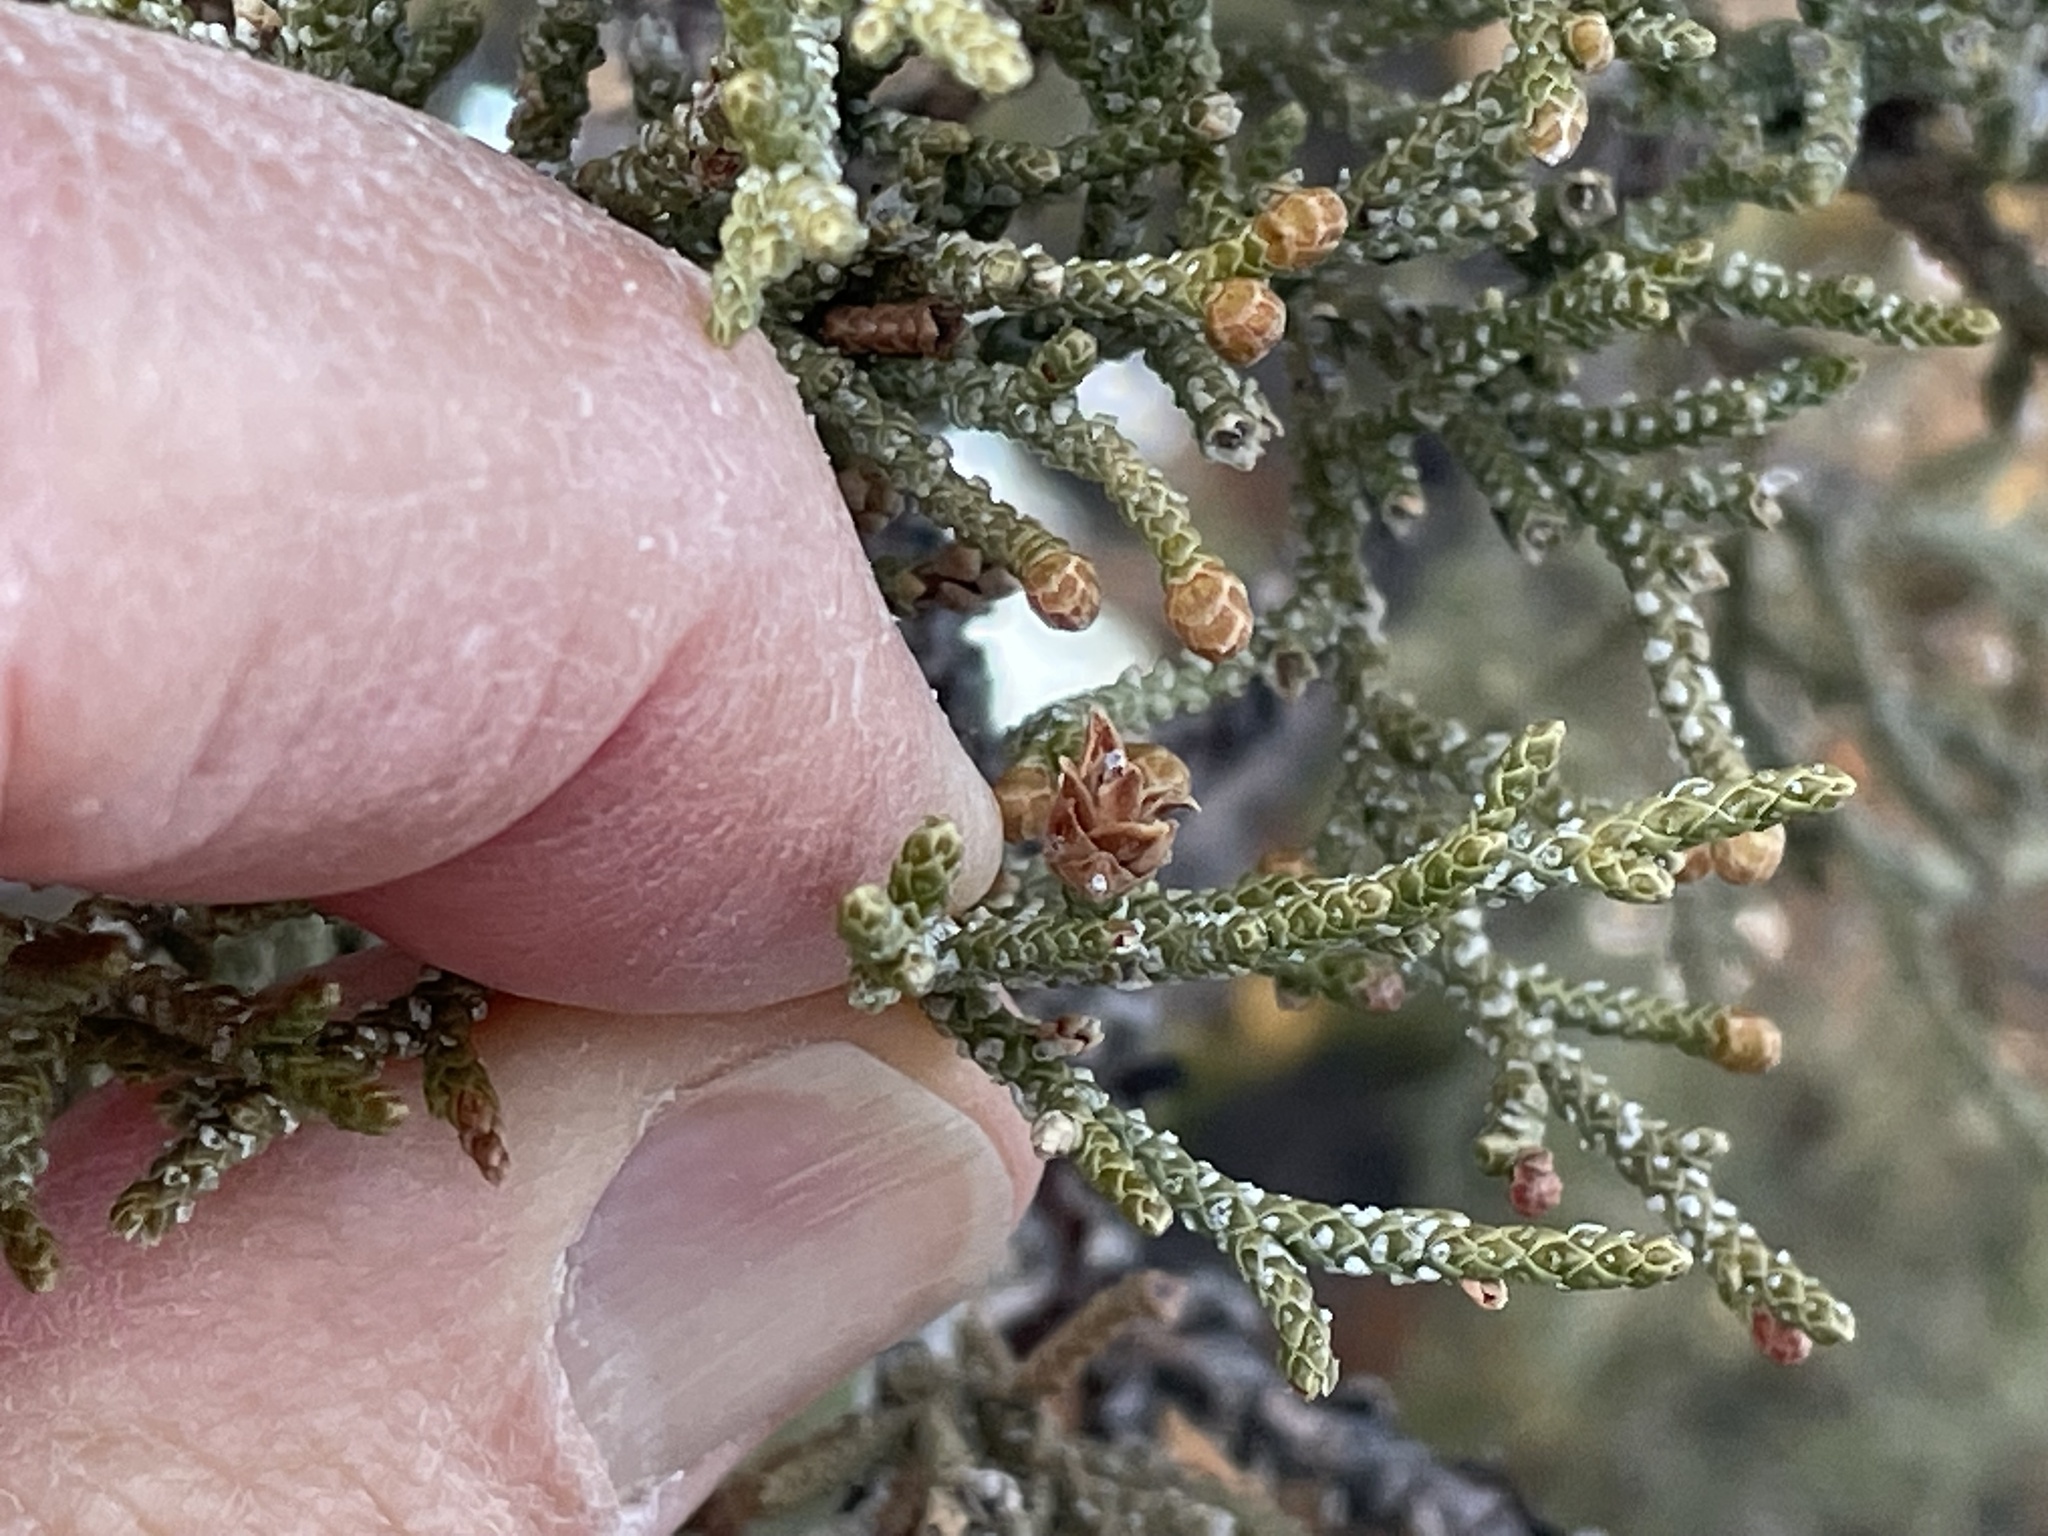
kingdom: Plantae
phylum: Tracheophyta
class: Pinopsida
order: Pinales
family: Cupressaceae
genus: Juniperus
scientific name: Juniperus occidentalis
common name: Western juniper
